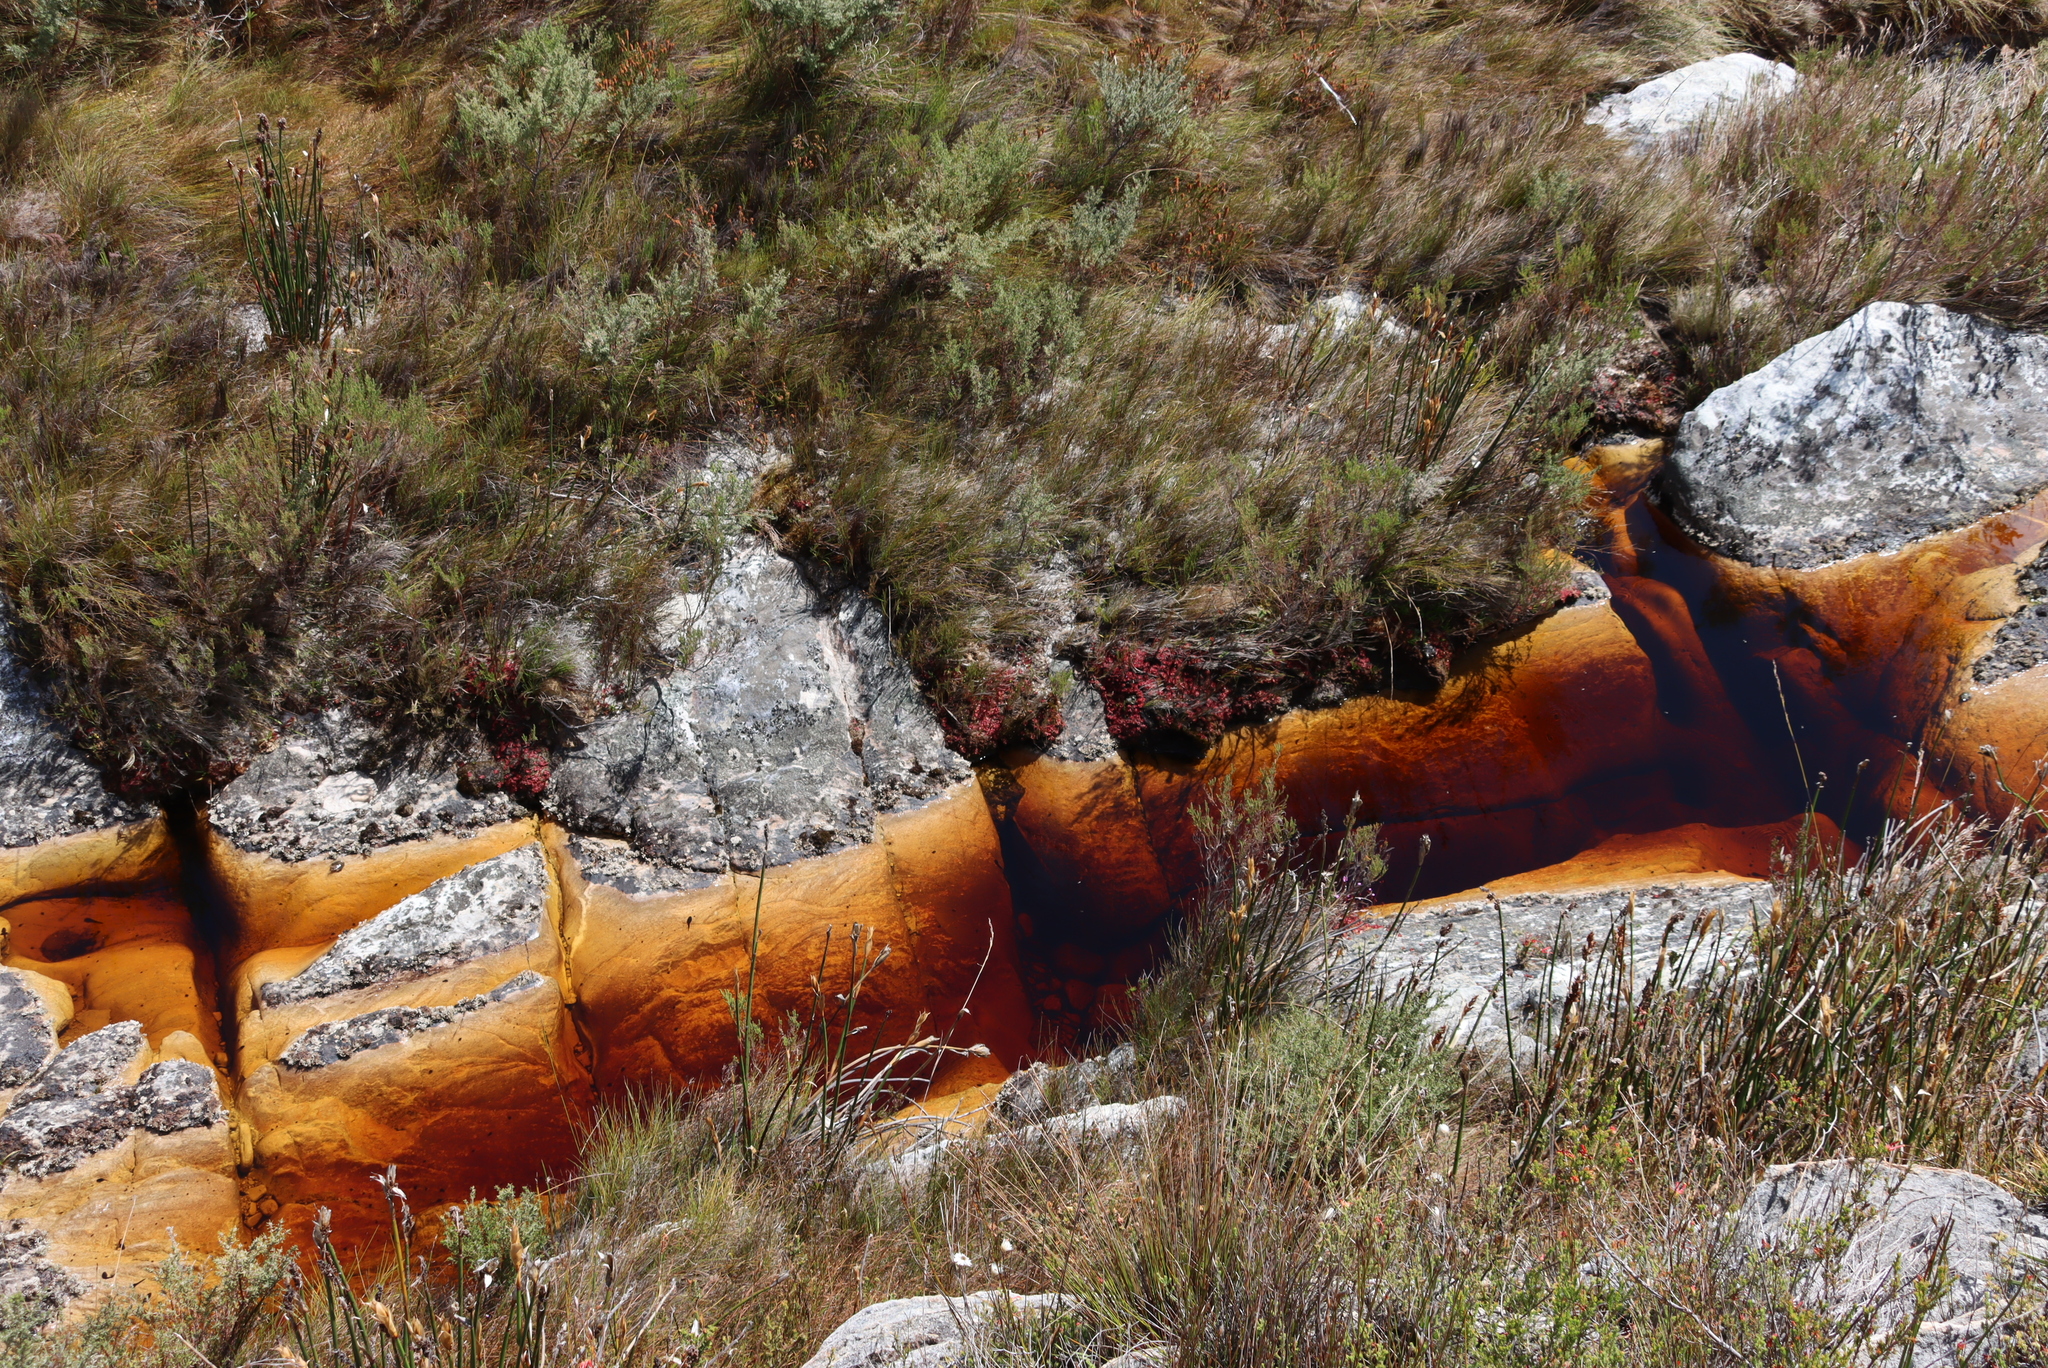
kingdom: Plantae
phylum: Tracheophyta
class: Magnoliopsida
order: Caryophyllales
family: Droseraceae
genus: Drosera
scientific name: Drosera aliciae
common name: Alice sundew
